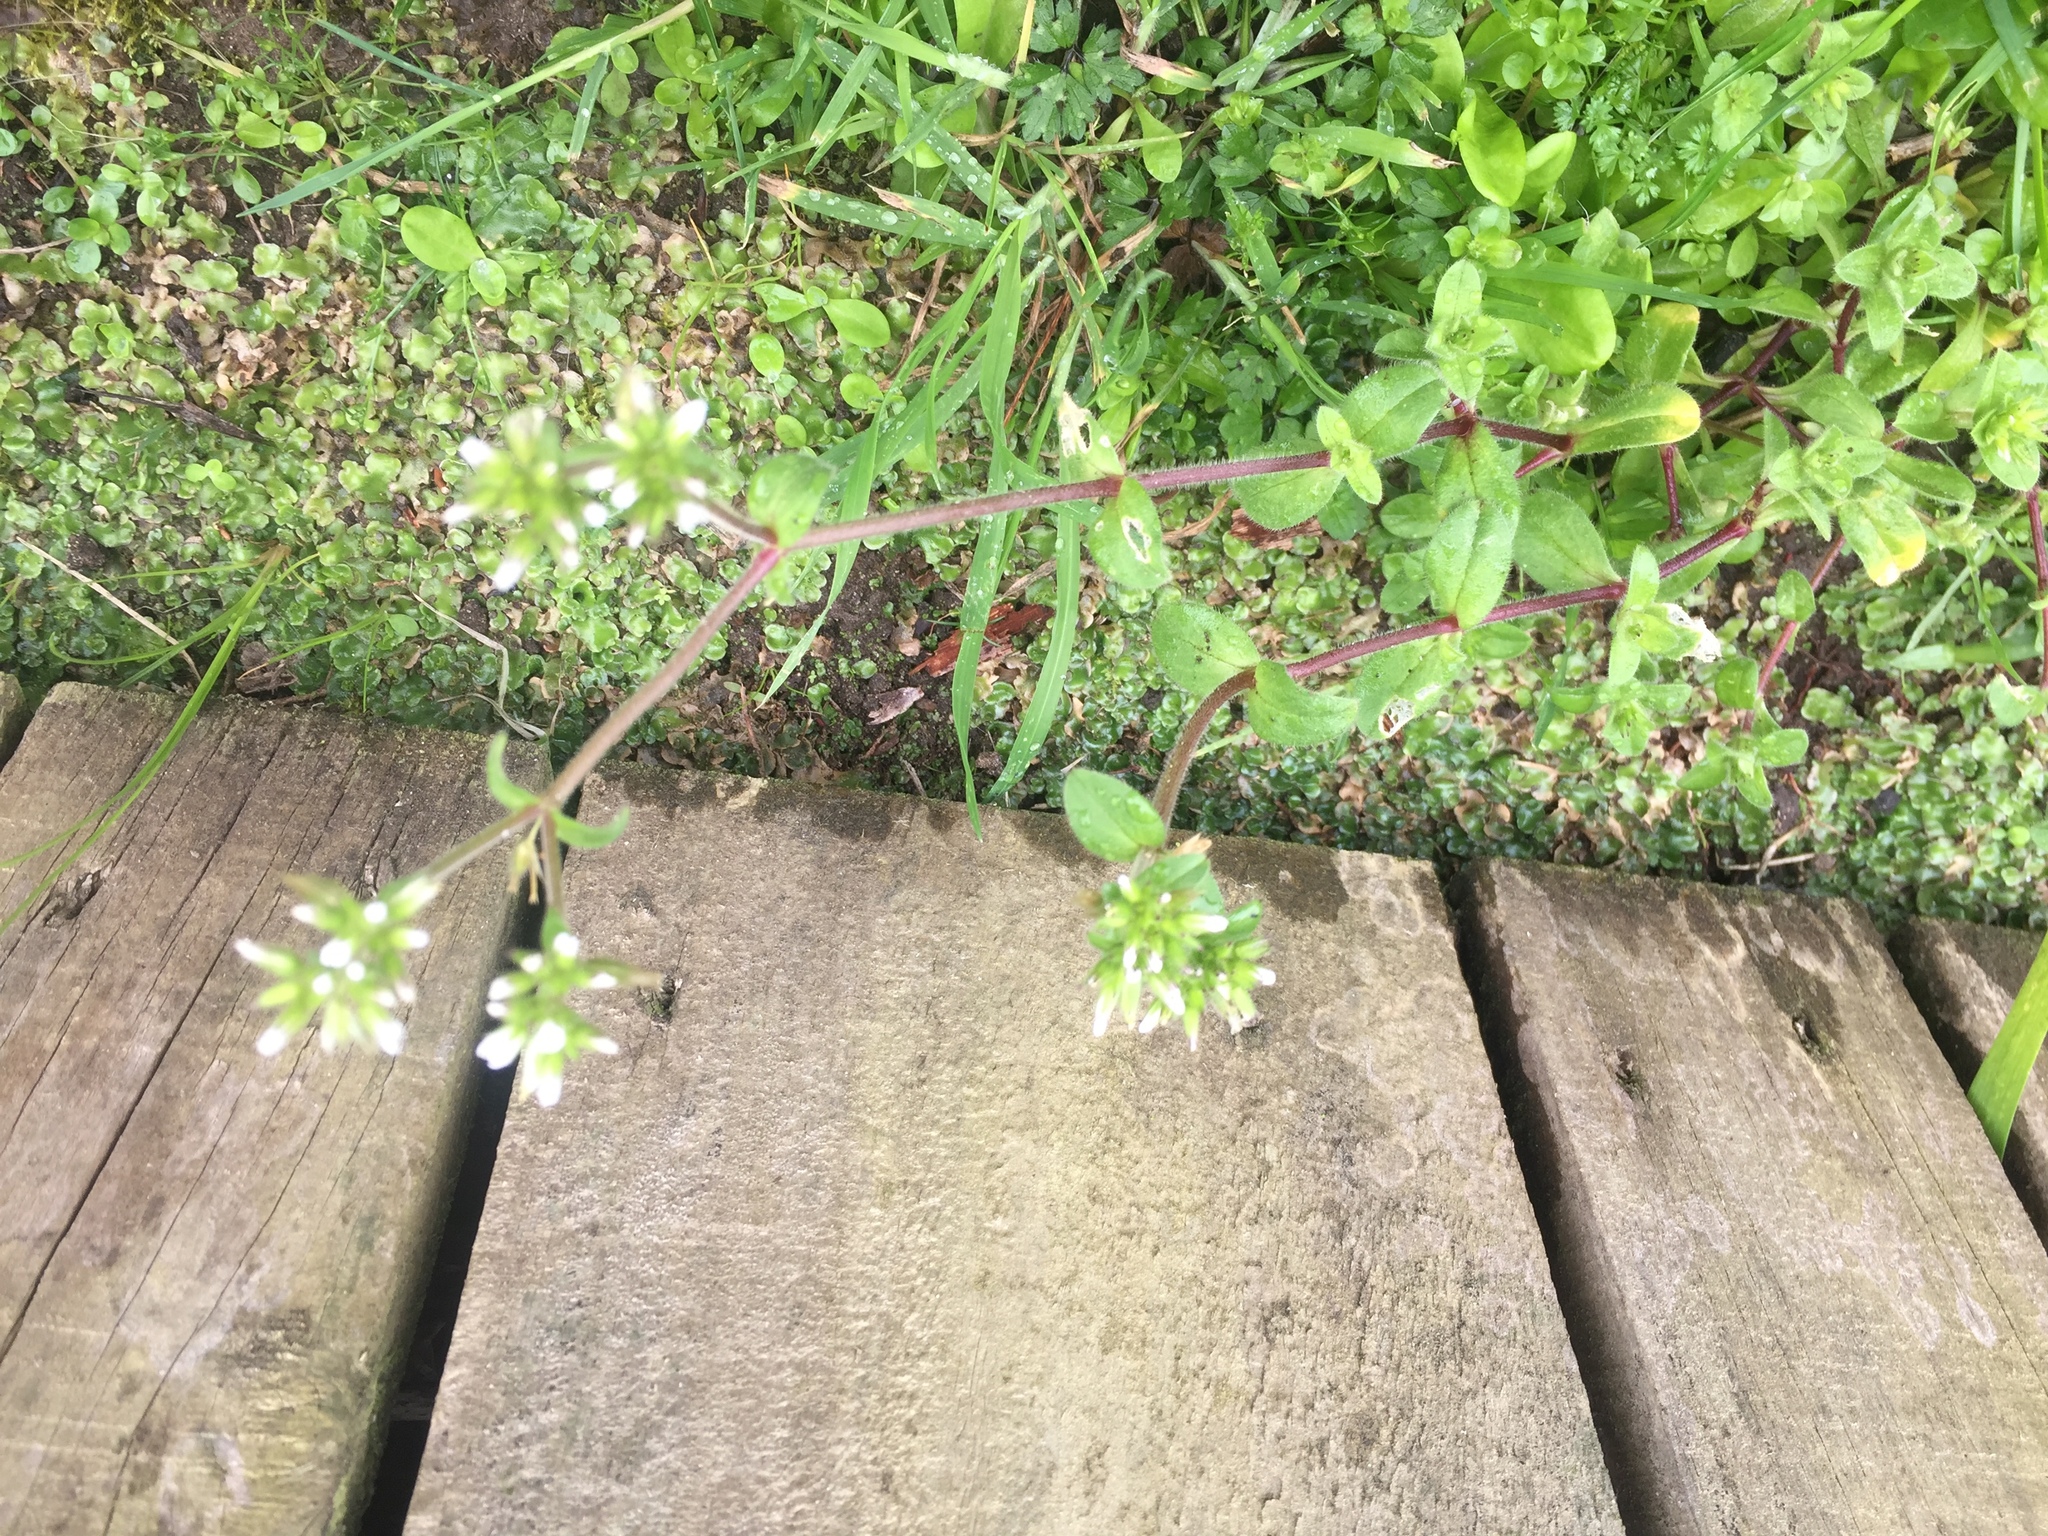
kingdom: Plantae
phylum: Tracheophyta
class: Magnoliopsida
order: Caryophyllales
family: Caryophyllaceae
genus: Cerastium
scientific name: Cerastium fontanum
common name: Common mouse-ear
